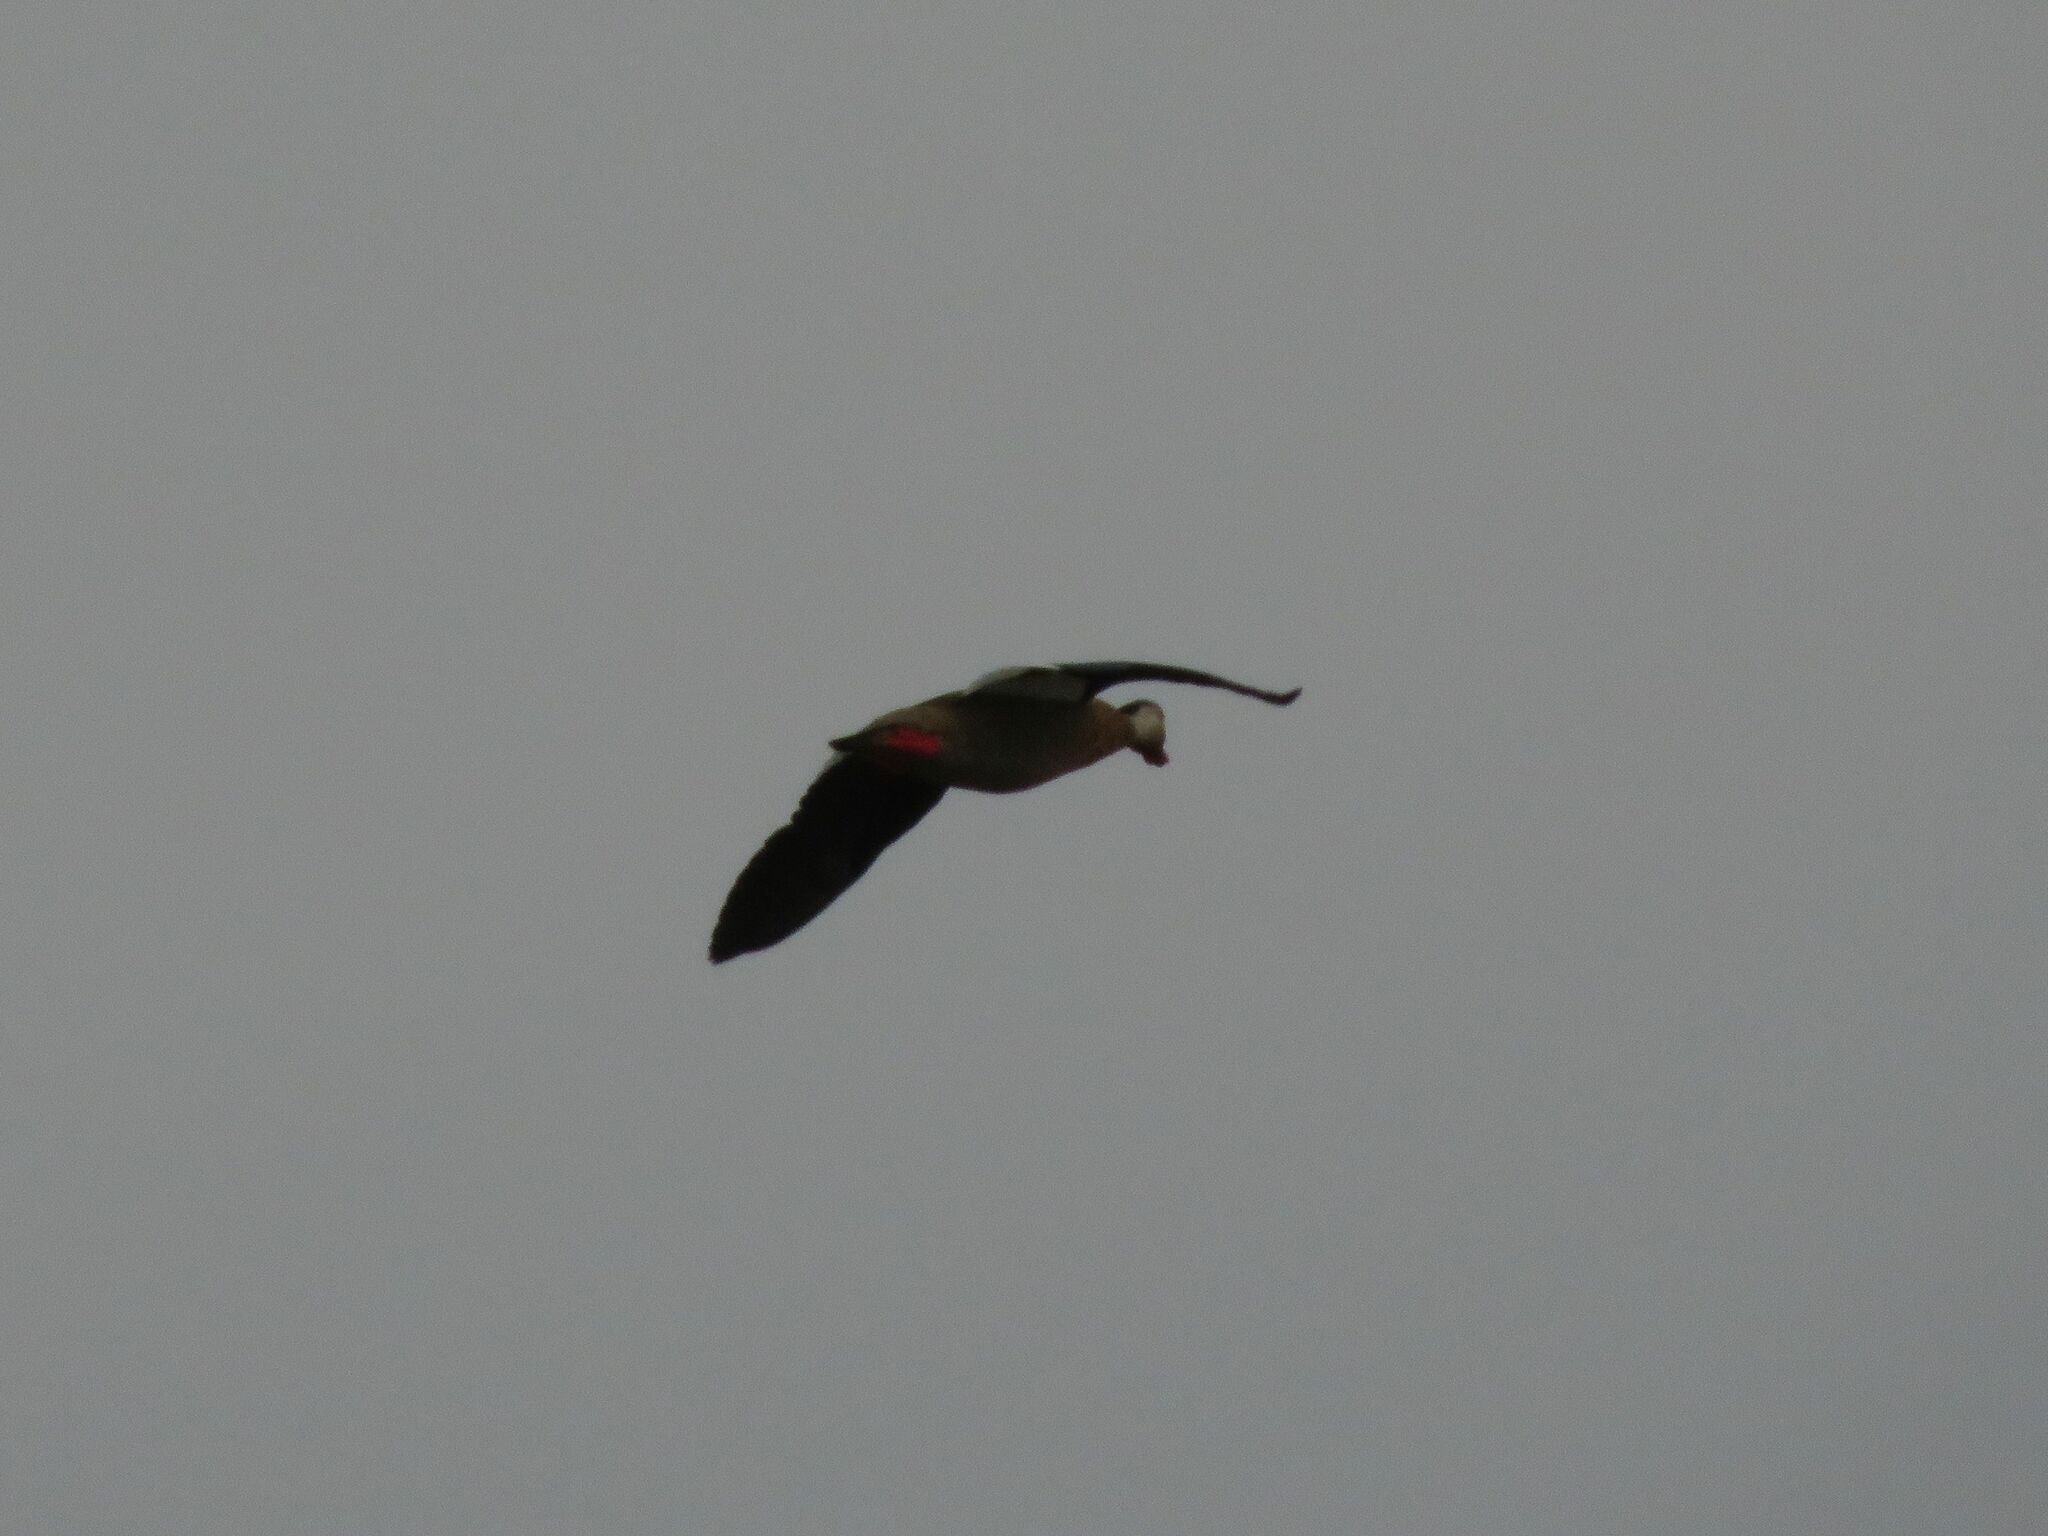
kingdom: Animalia
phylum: Chordata
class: Aves
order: Anseriformes
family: Anatidae
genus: Amazonetta
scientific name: Amazonetta brasiliensis
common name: Brazilian teal
